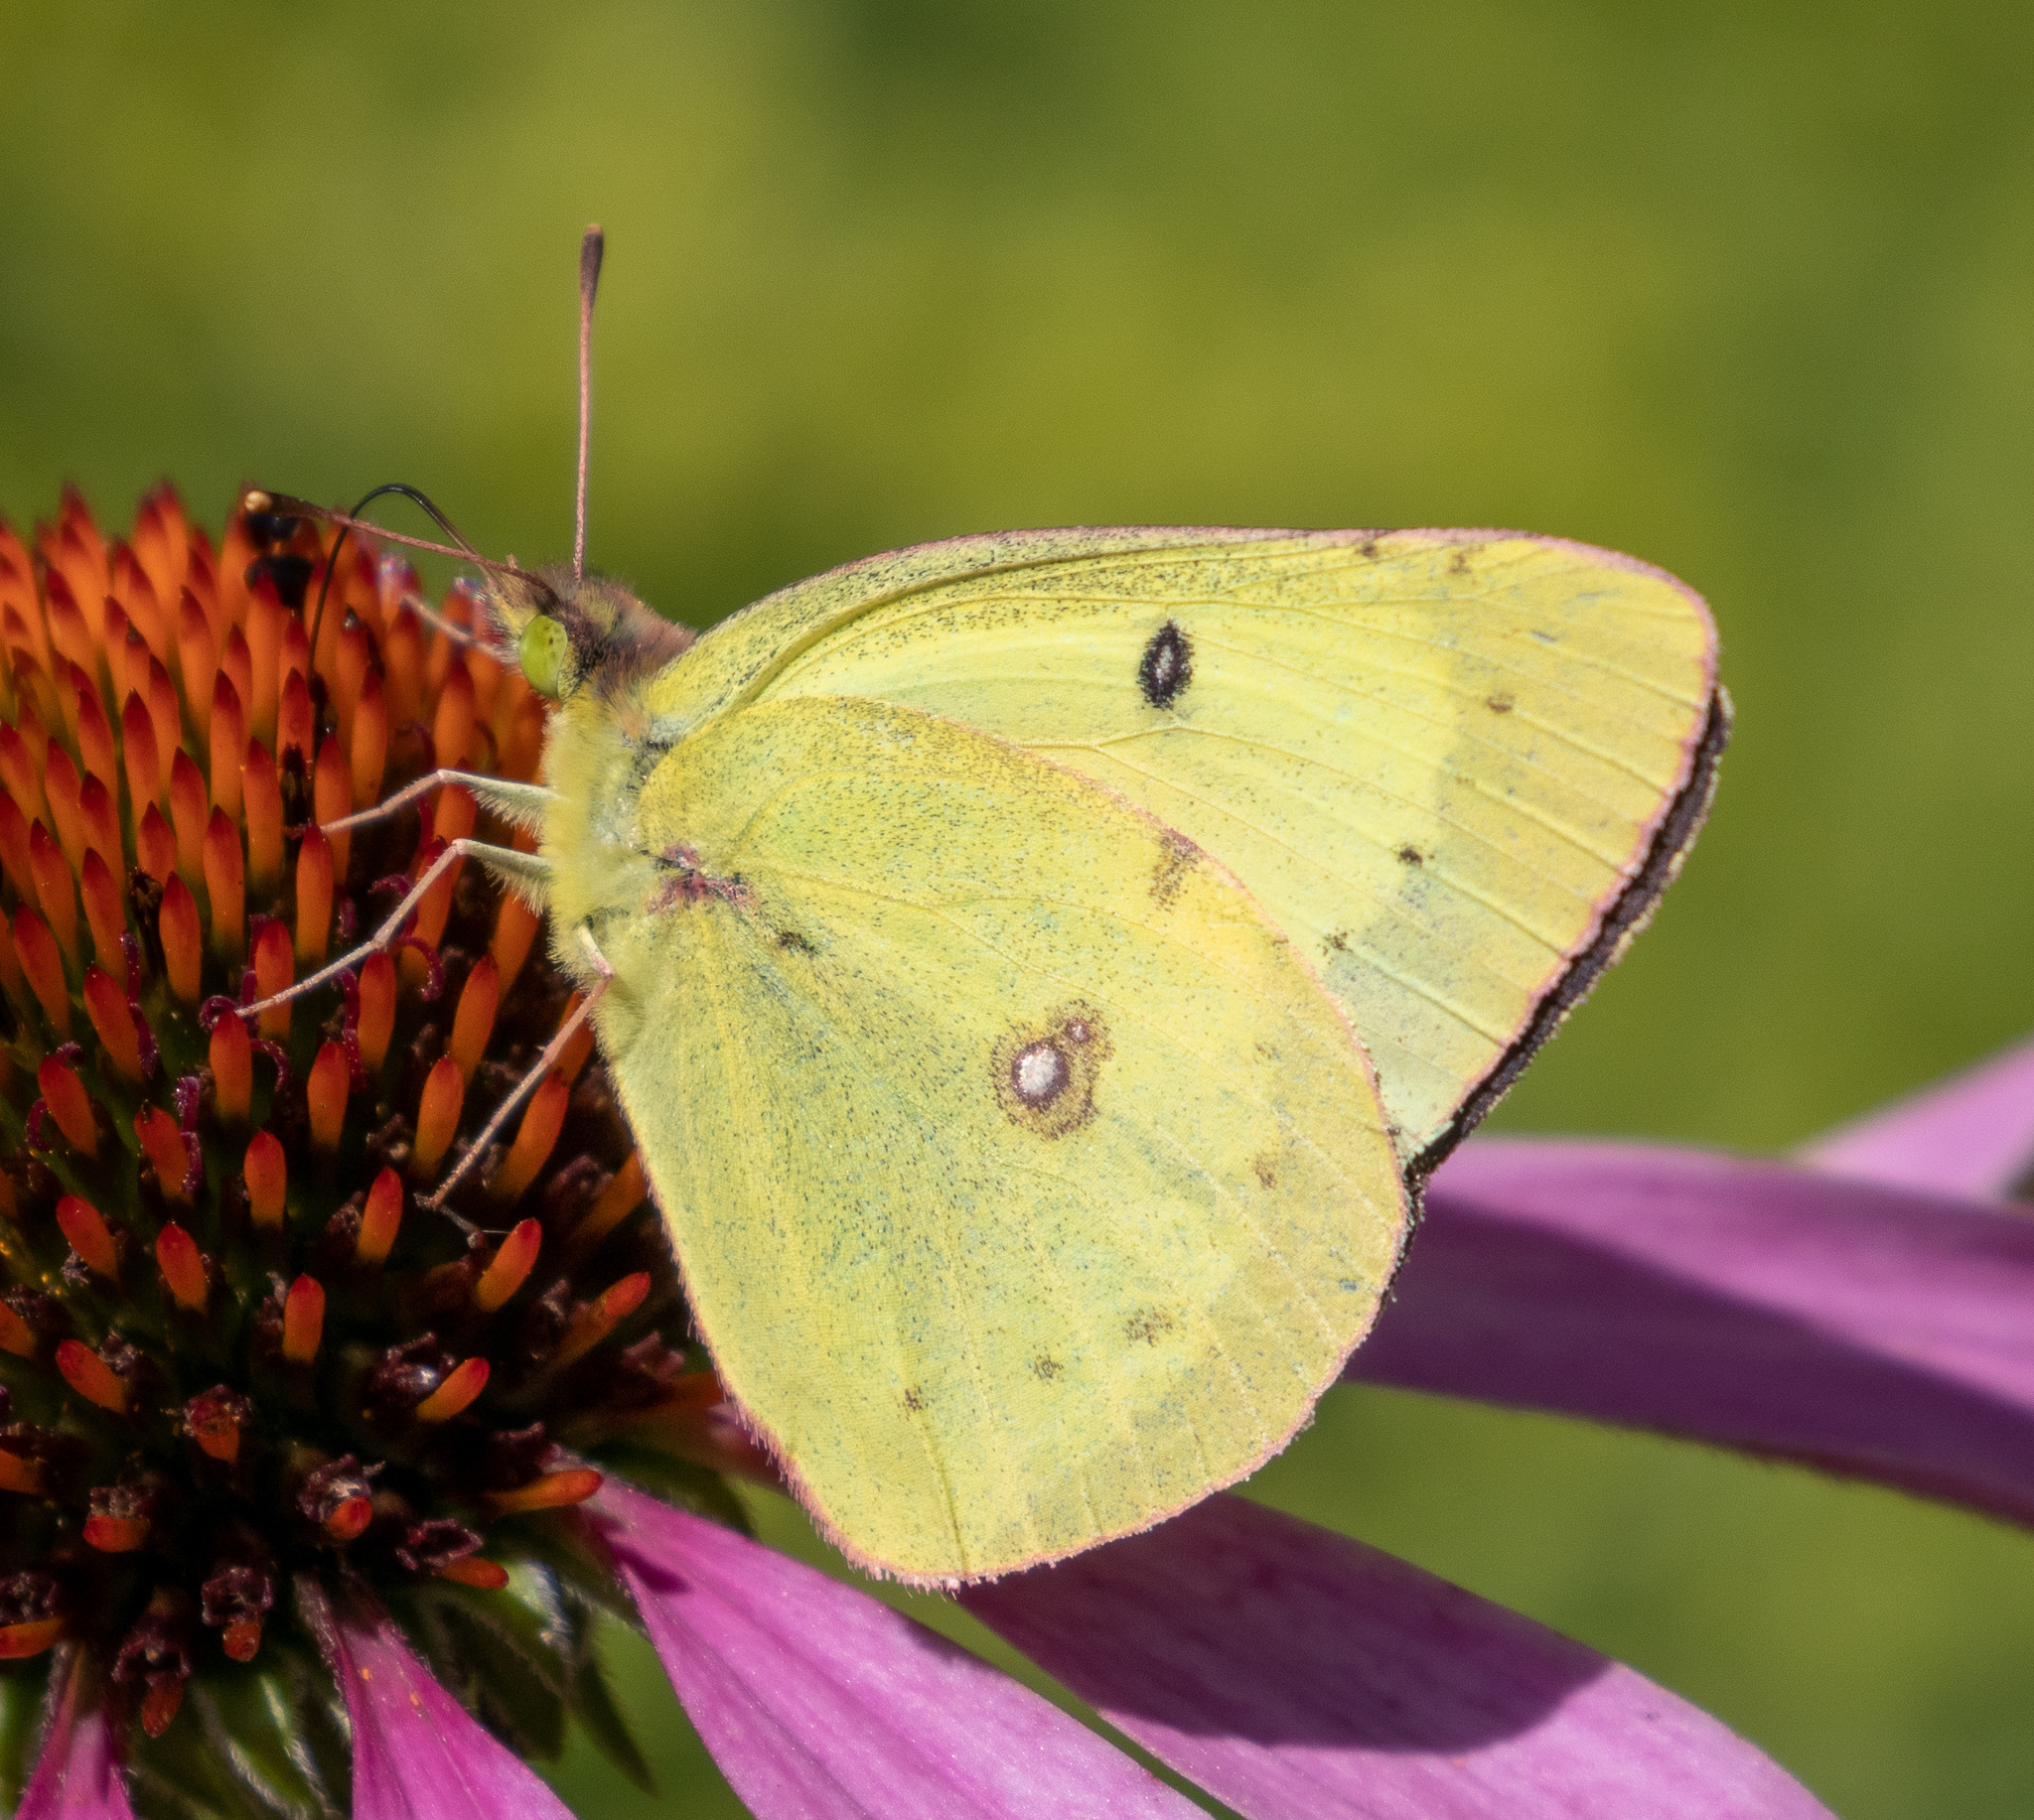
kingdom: Animalia
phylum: Arthropoda
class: Insecta
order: Lepidoptera
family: Pieridae
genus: Colias
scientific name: Colias philodice
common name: Clouded sulphur
